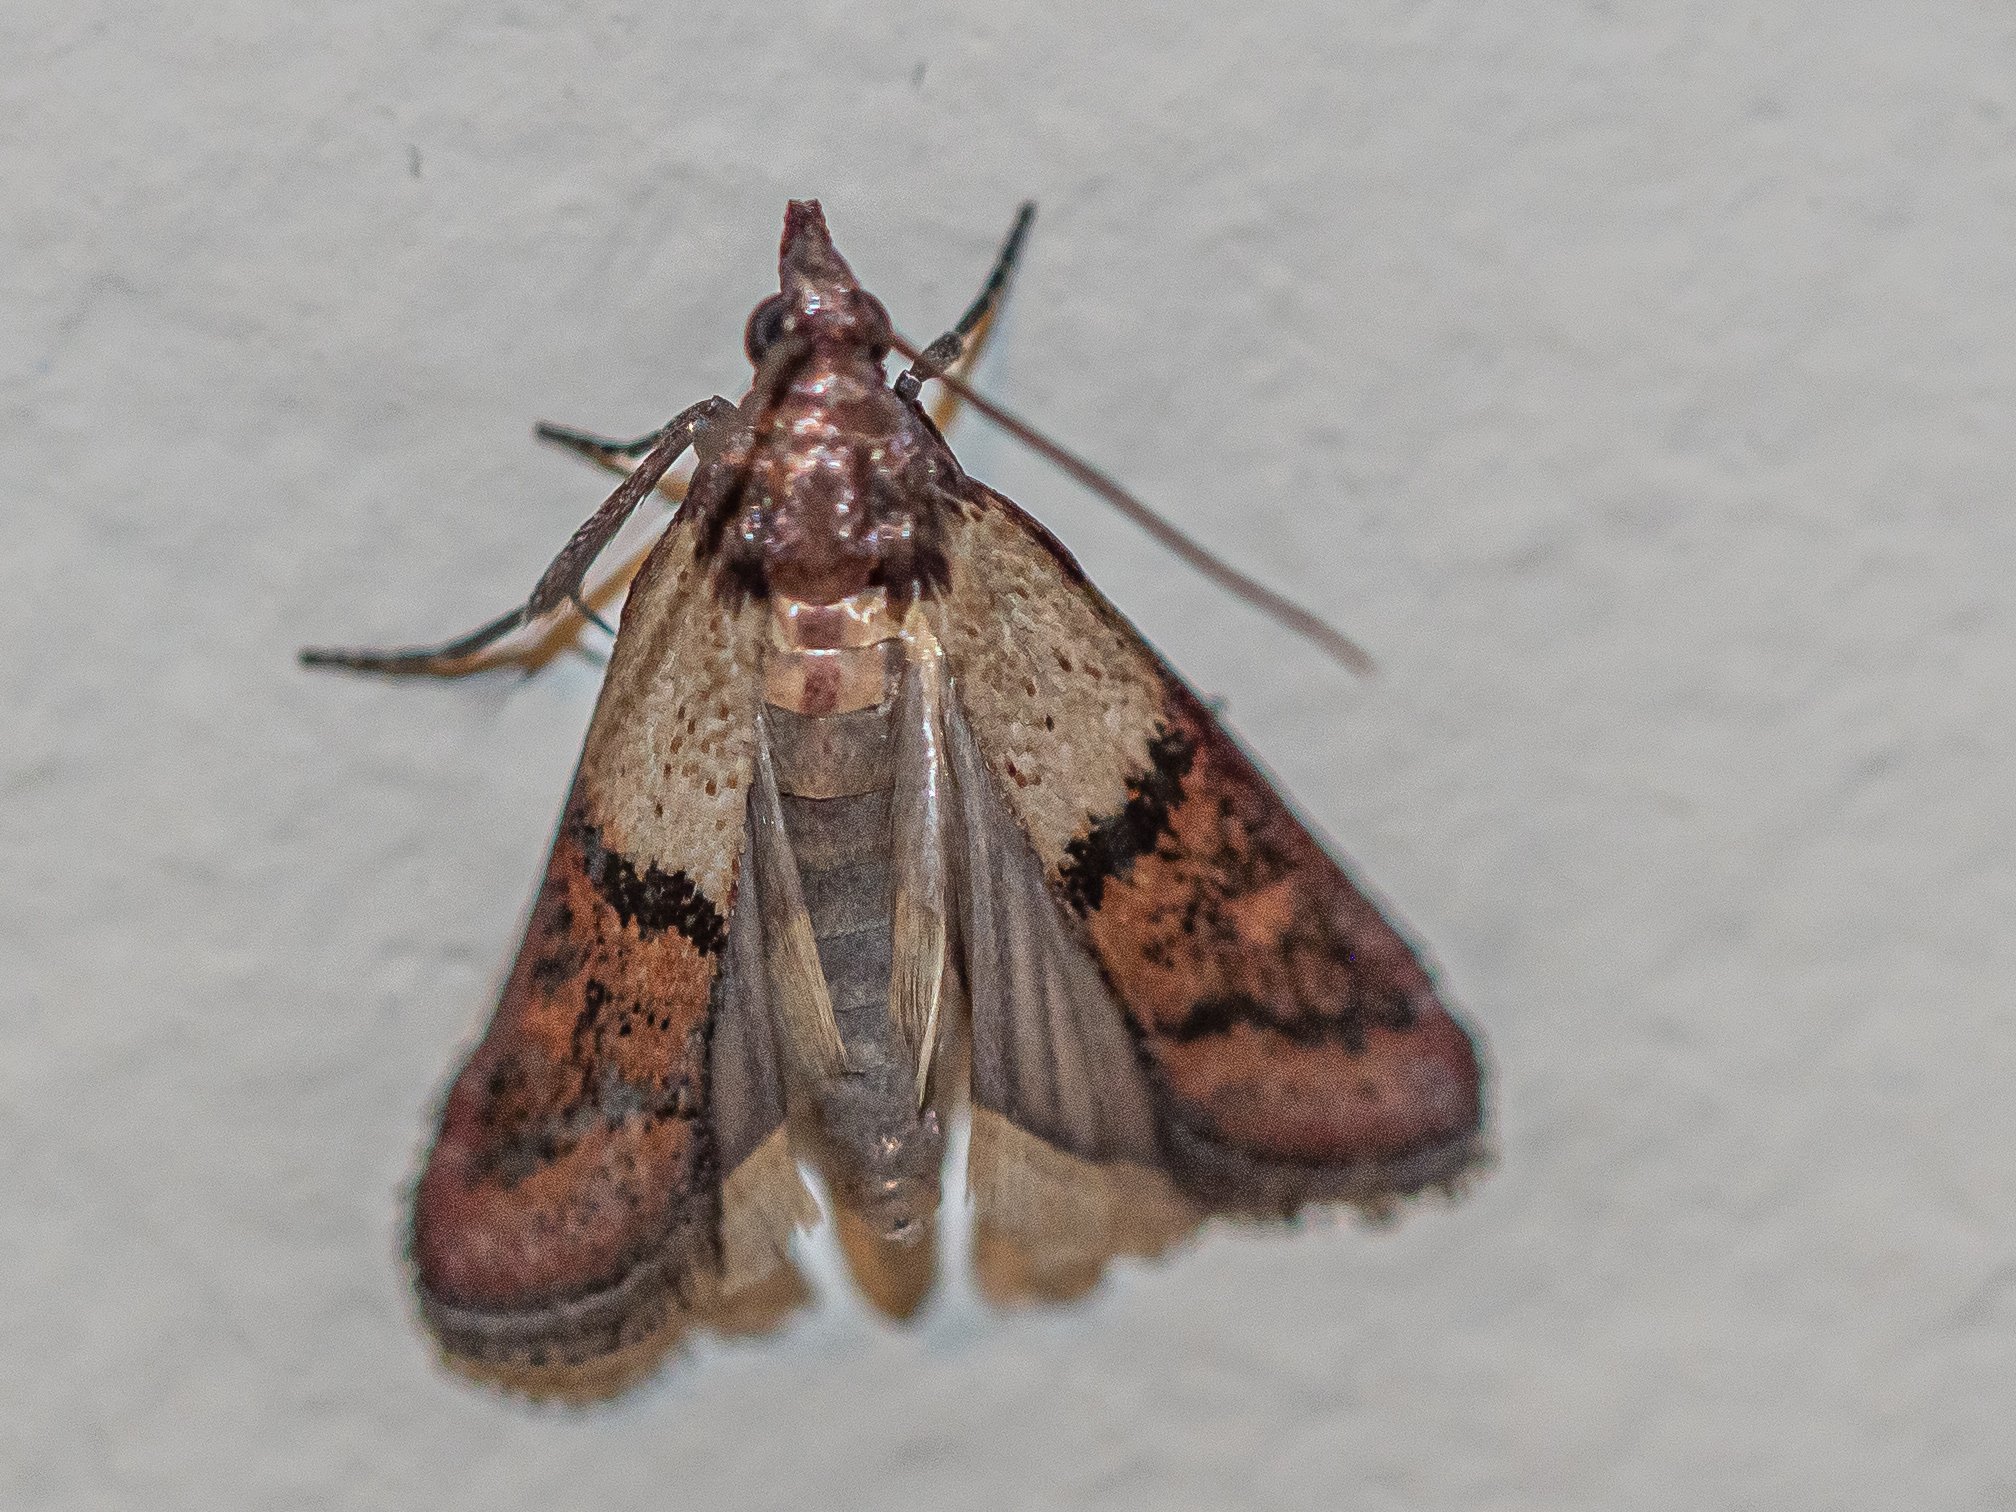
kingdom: Animalia
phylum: Arthropoda
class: Insecta
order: Lepidoptera
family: Pyralidae
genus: Plodia
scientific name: Plodia interpunctella
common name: Indian meal moth
